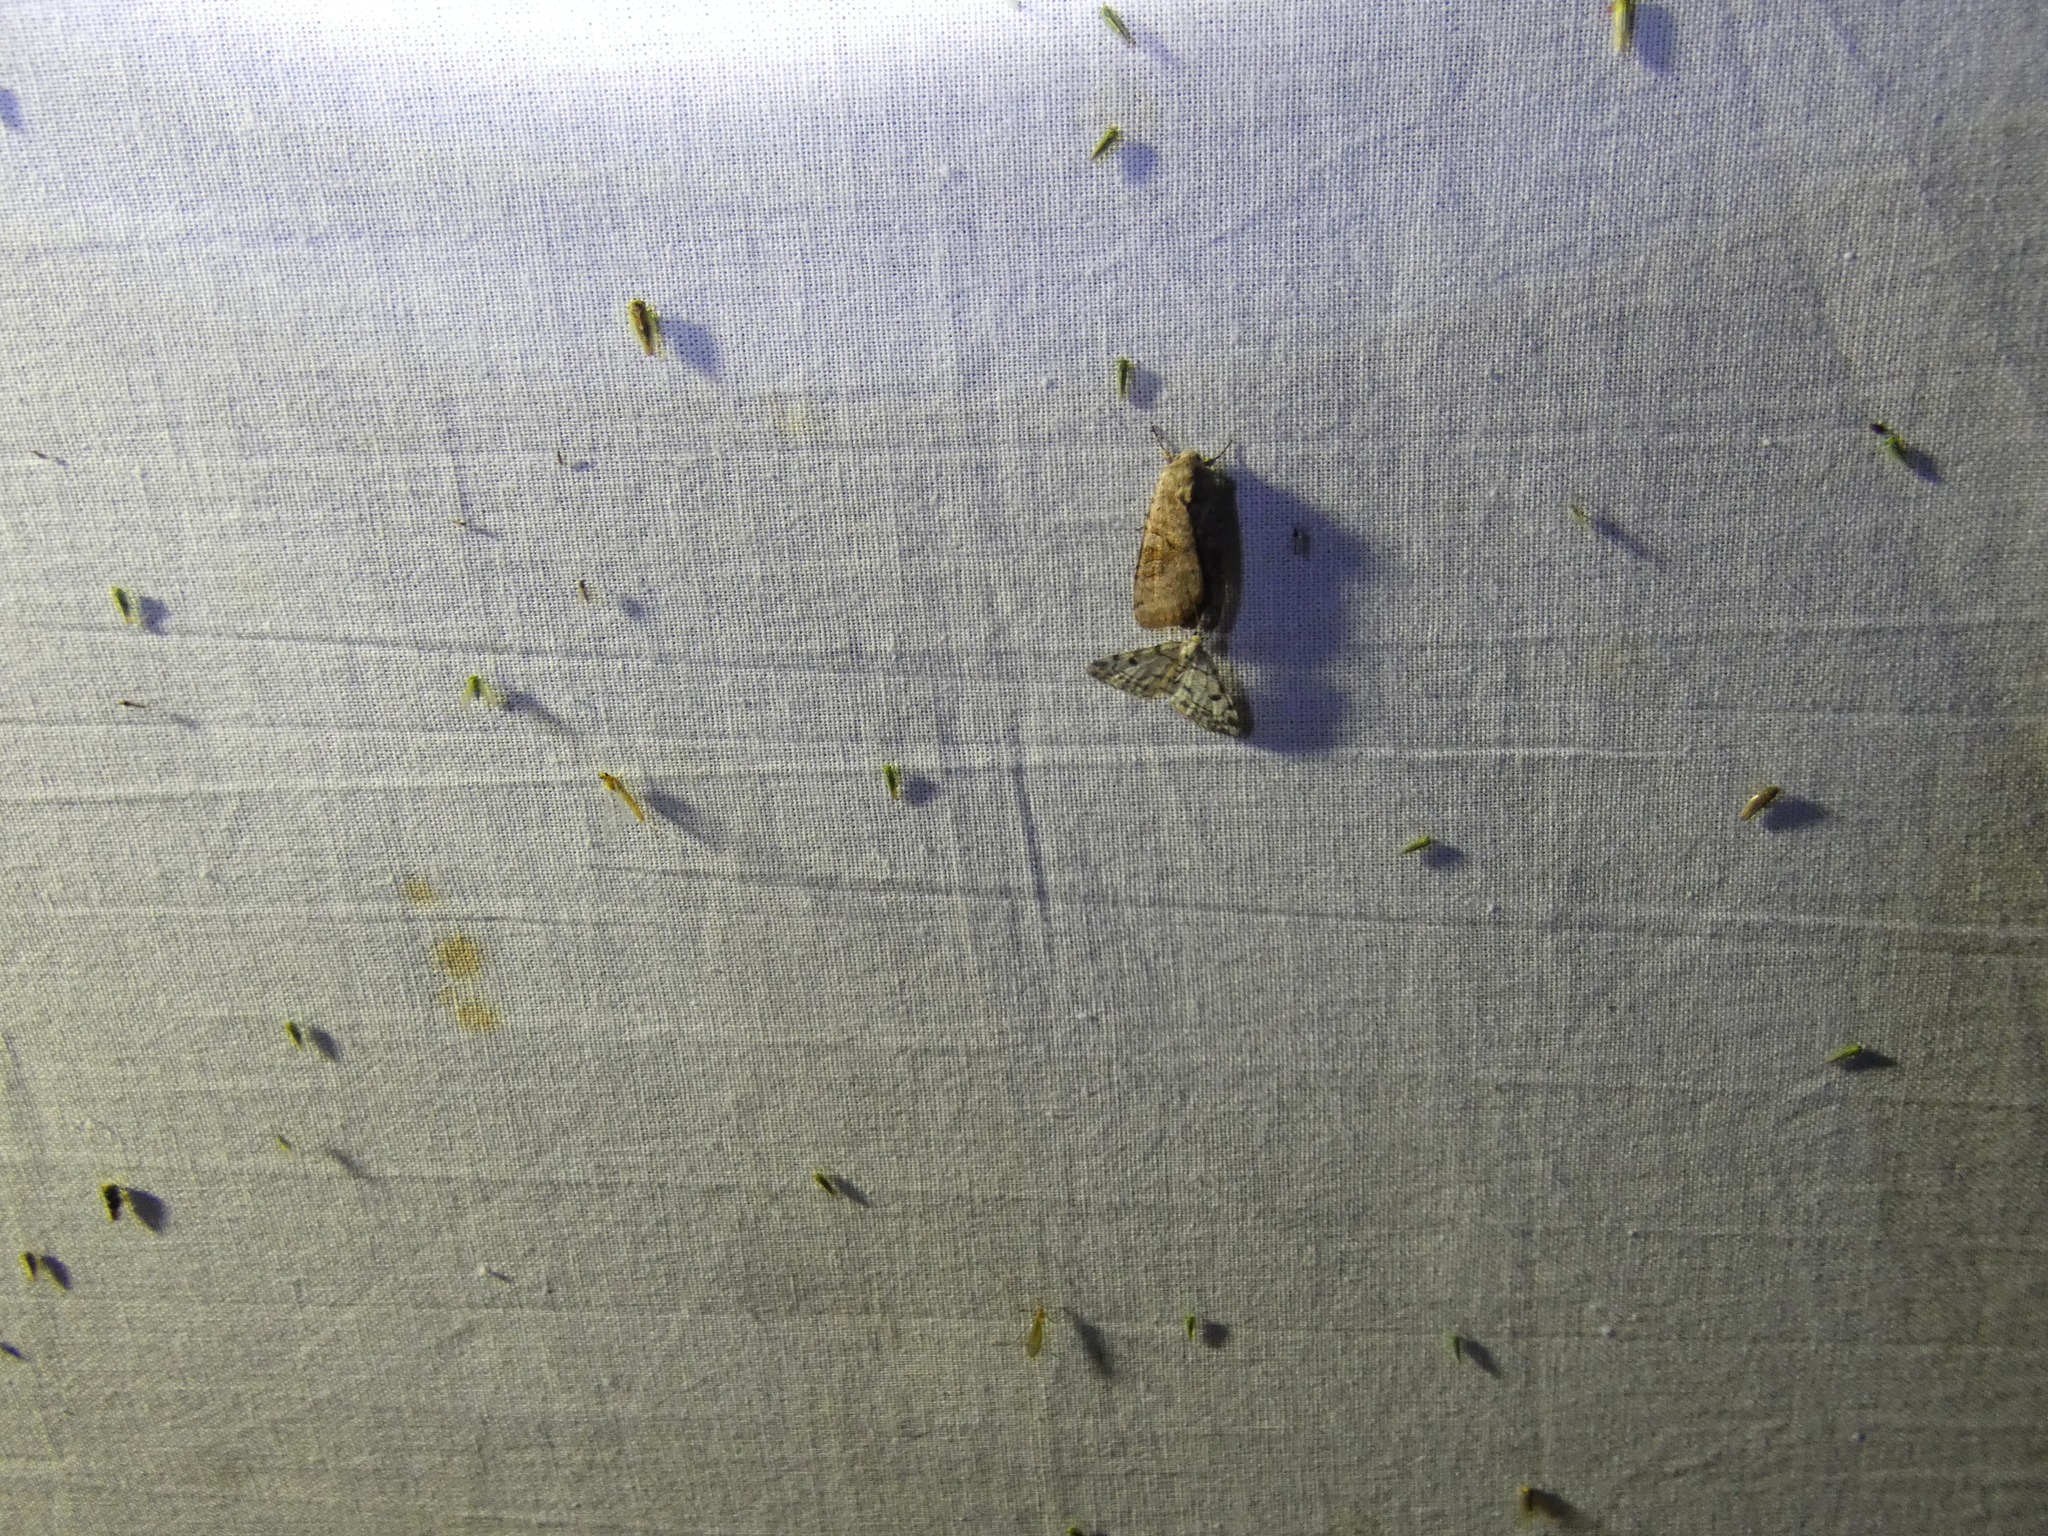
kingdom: Animalia
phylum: Arthropoda
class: Insecta
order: Lepidoptera
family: Geometridae
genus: Alcis
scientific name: Alcis jubata
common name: Dotted carpet
